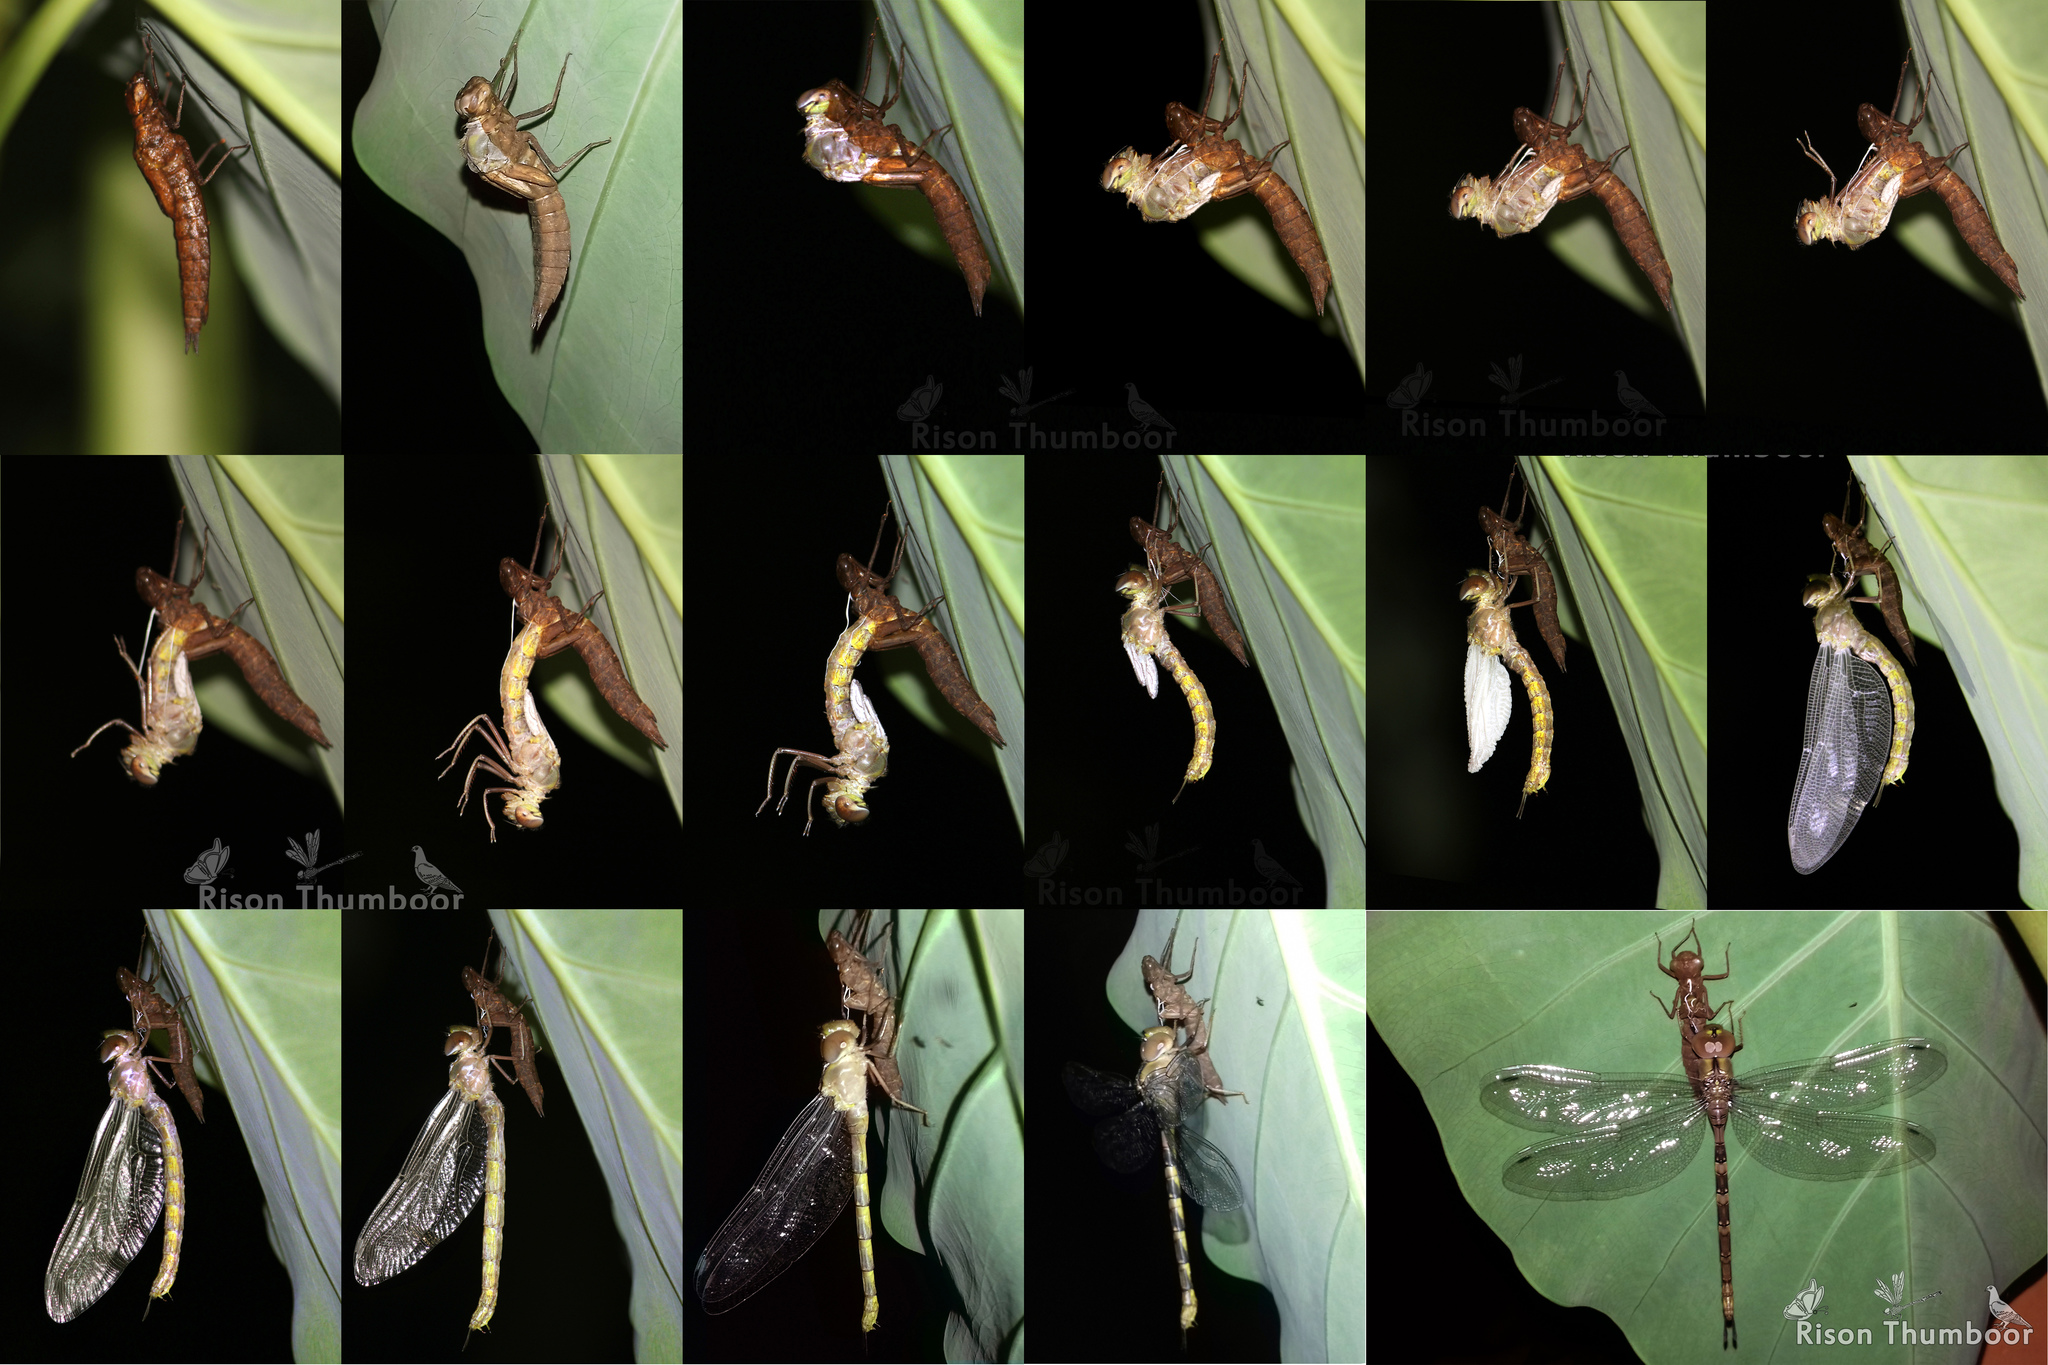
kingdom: Animalia
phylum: Arthropoda
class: Insecta
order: Odonata
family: Aeshnidae
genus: Gynacantha
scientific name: Gynacantha dravida
